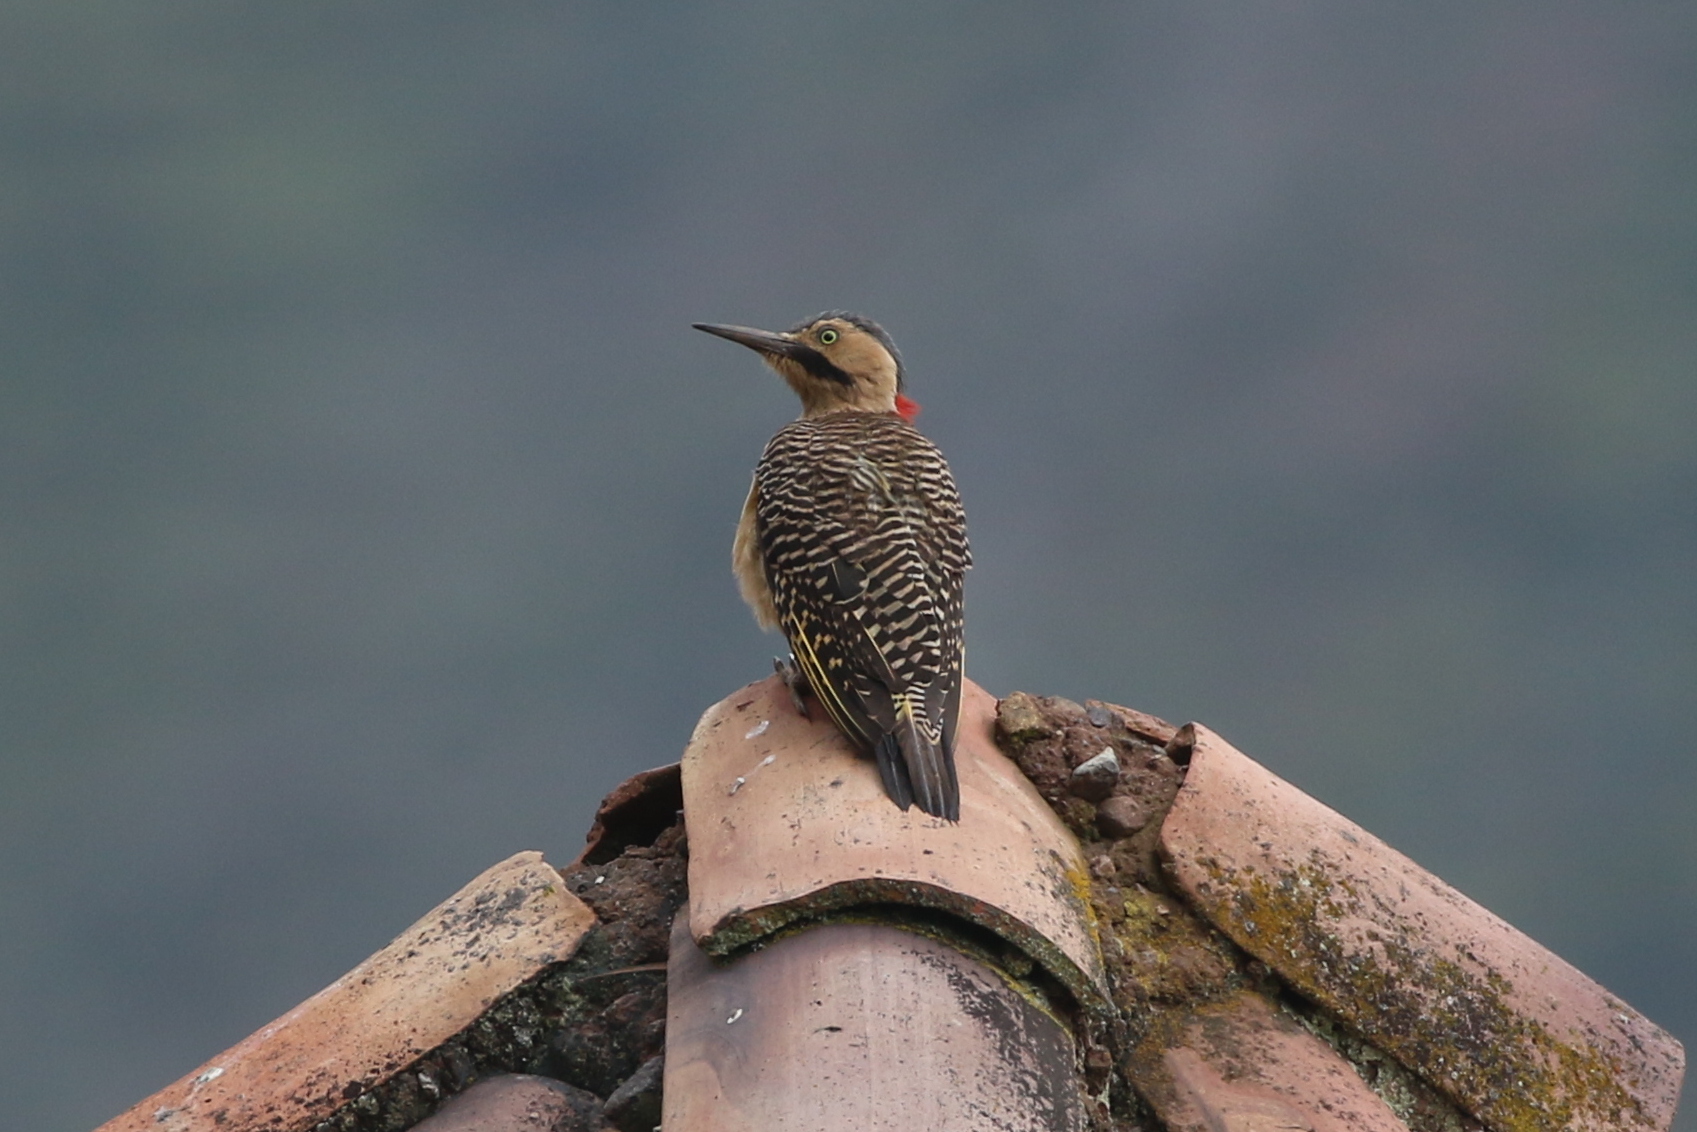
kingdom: Animalia
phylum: Chordata
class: Aves
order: Piciformes
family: Picidae
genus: Colaptes
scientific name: Colaptes rupicola
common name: Andean flicker
